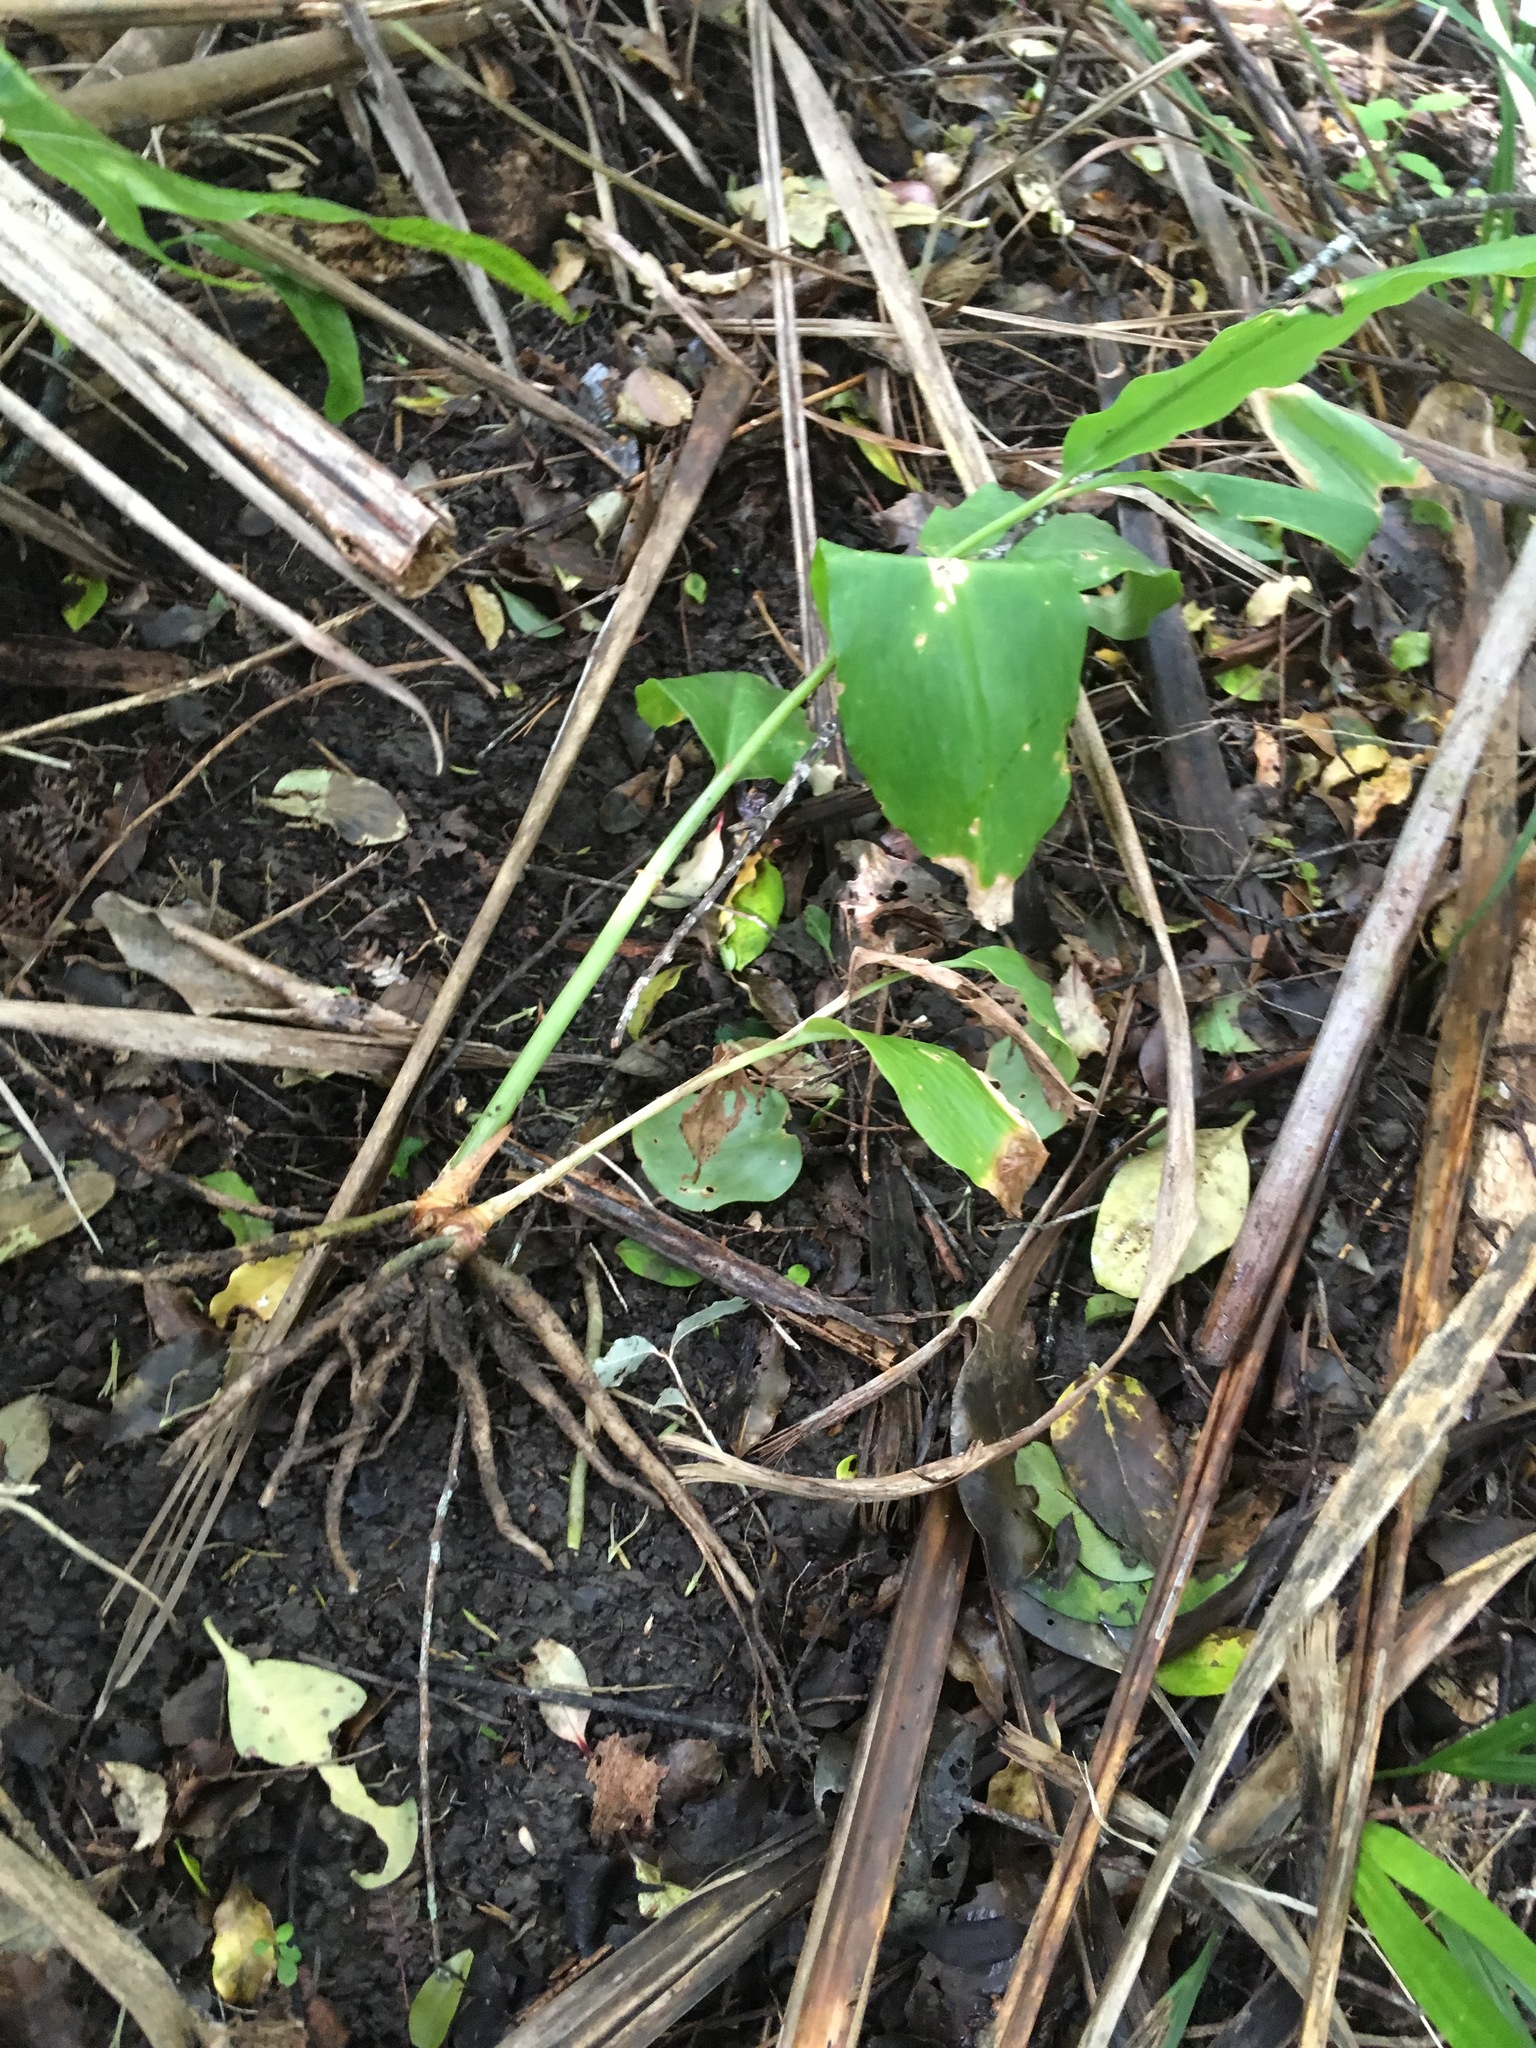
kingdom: Plantae
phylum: Tracheophyta
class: Liliopsida
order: Zingiberales
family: Zingiberaceae
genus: Hedychium
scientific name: Hedychium gardnerianum
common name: Himalayan ginger
